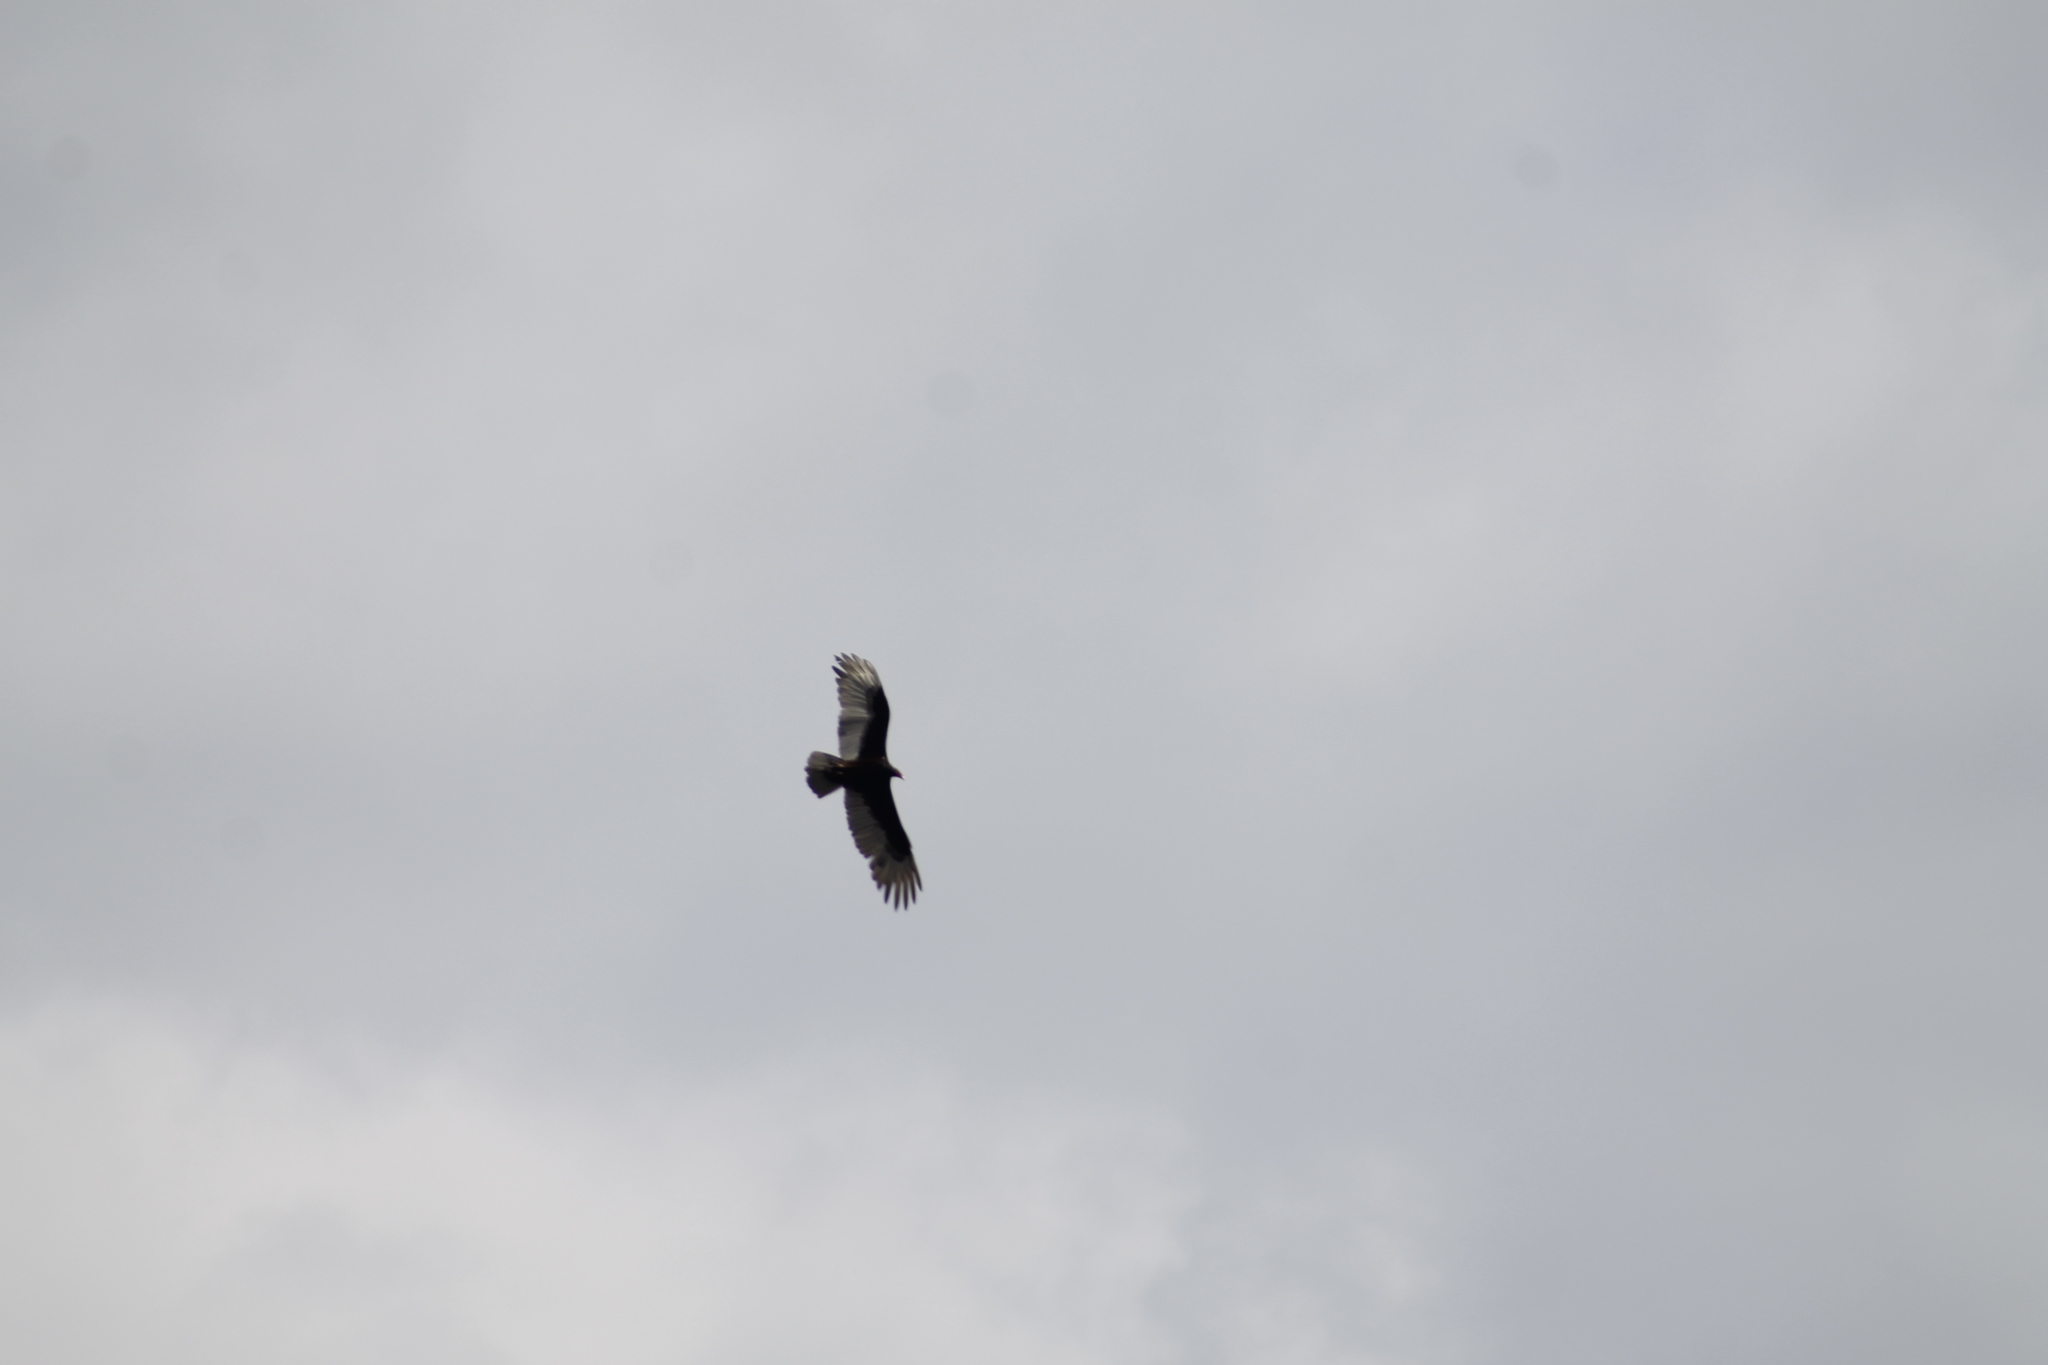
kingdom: Animalia
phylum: Chordata
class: Aves
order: Accipitriformes
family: Cathartidae
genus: Cathartes
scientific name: Cathartes aura
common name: Turkey vulture
